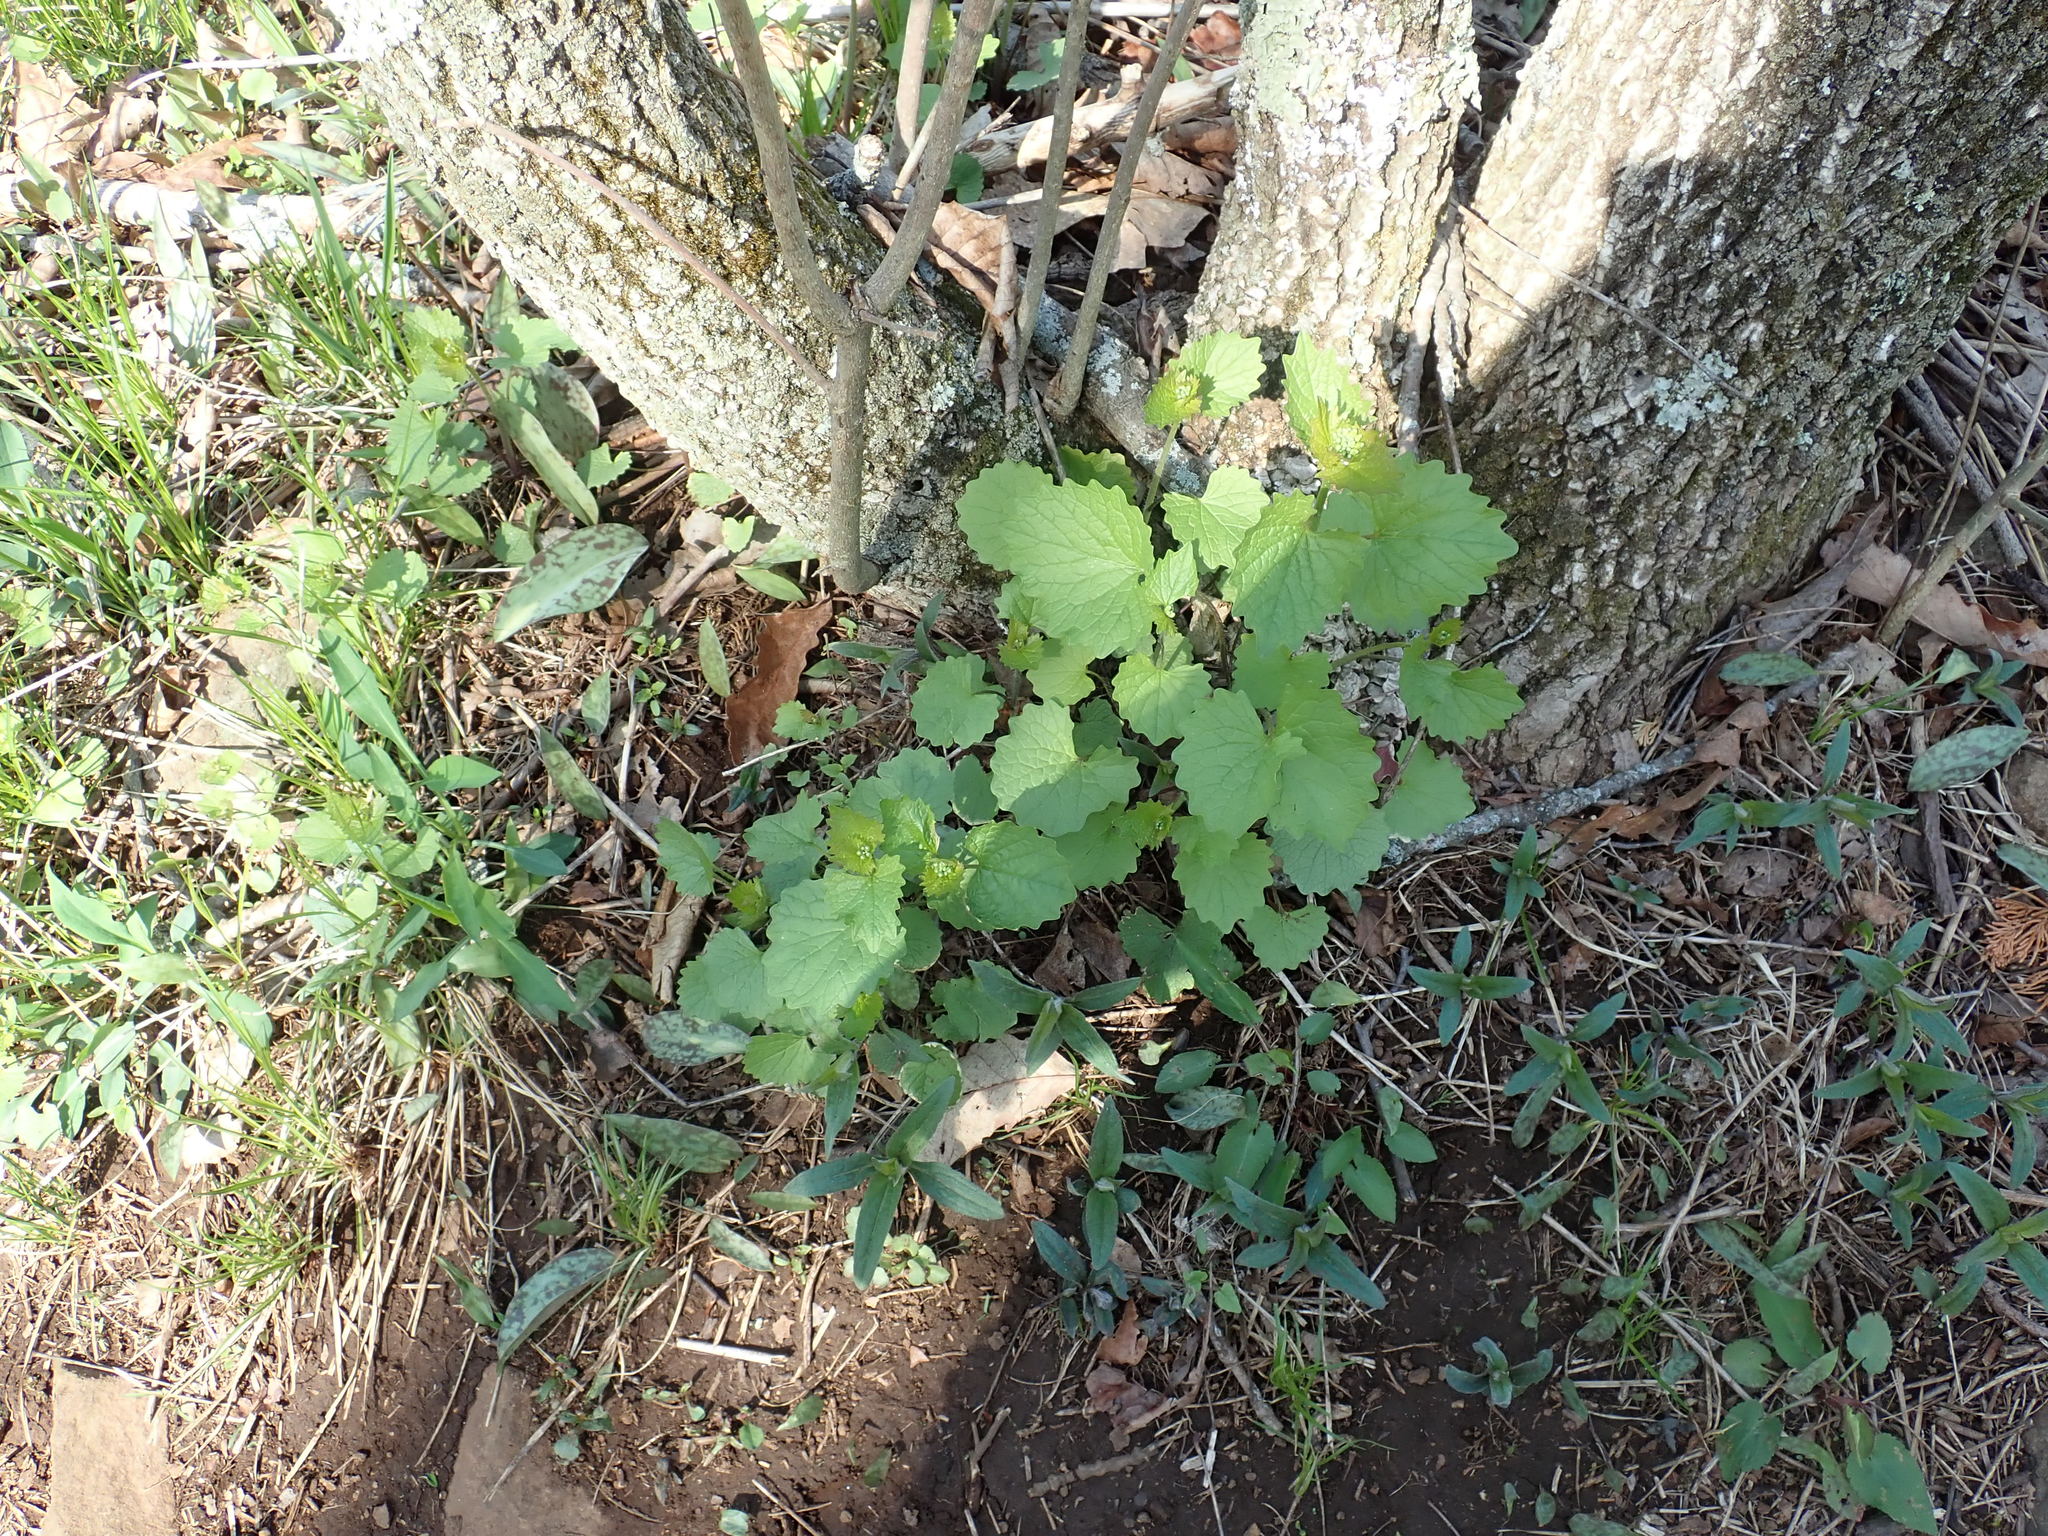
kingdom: Plantae
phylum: Tracheophyta
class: Magnoliopsida
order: Brassicales
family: Brassicaceae
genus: Alliaria
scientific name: Alliaria petiolata
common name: Garlic mustard
